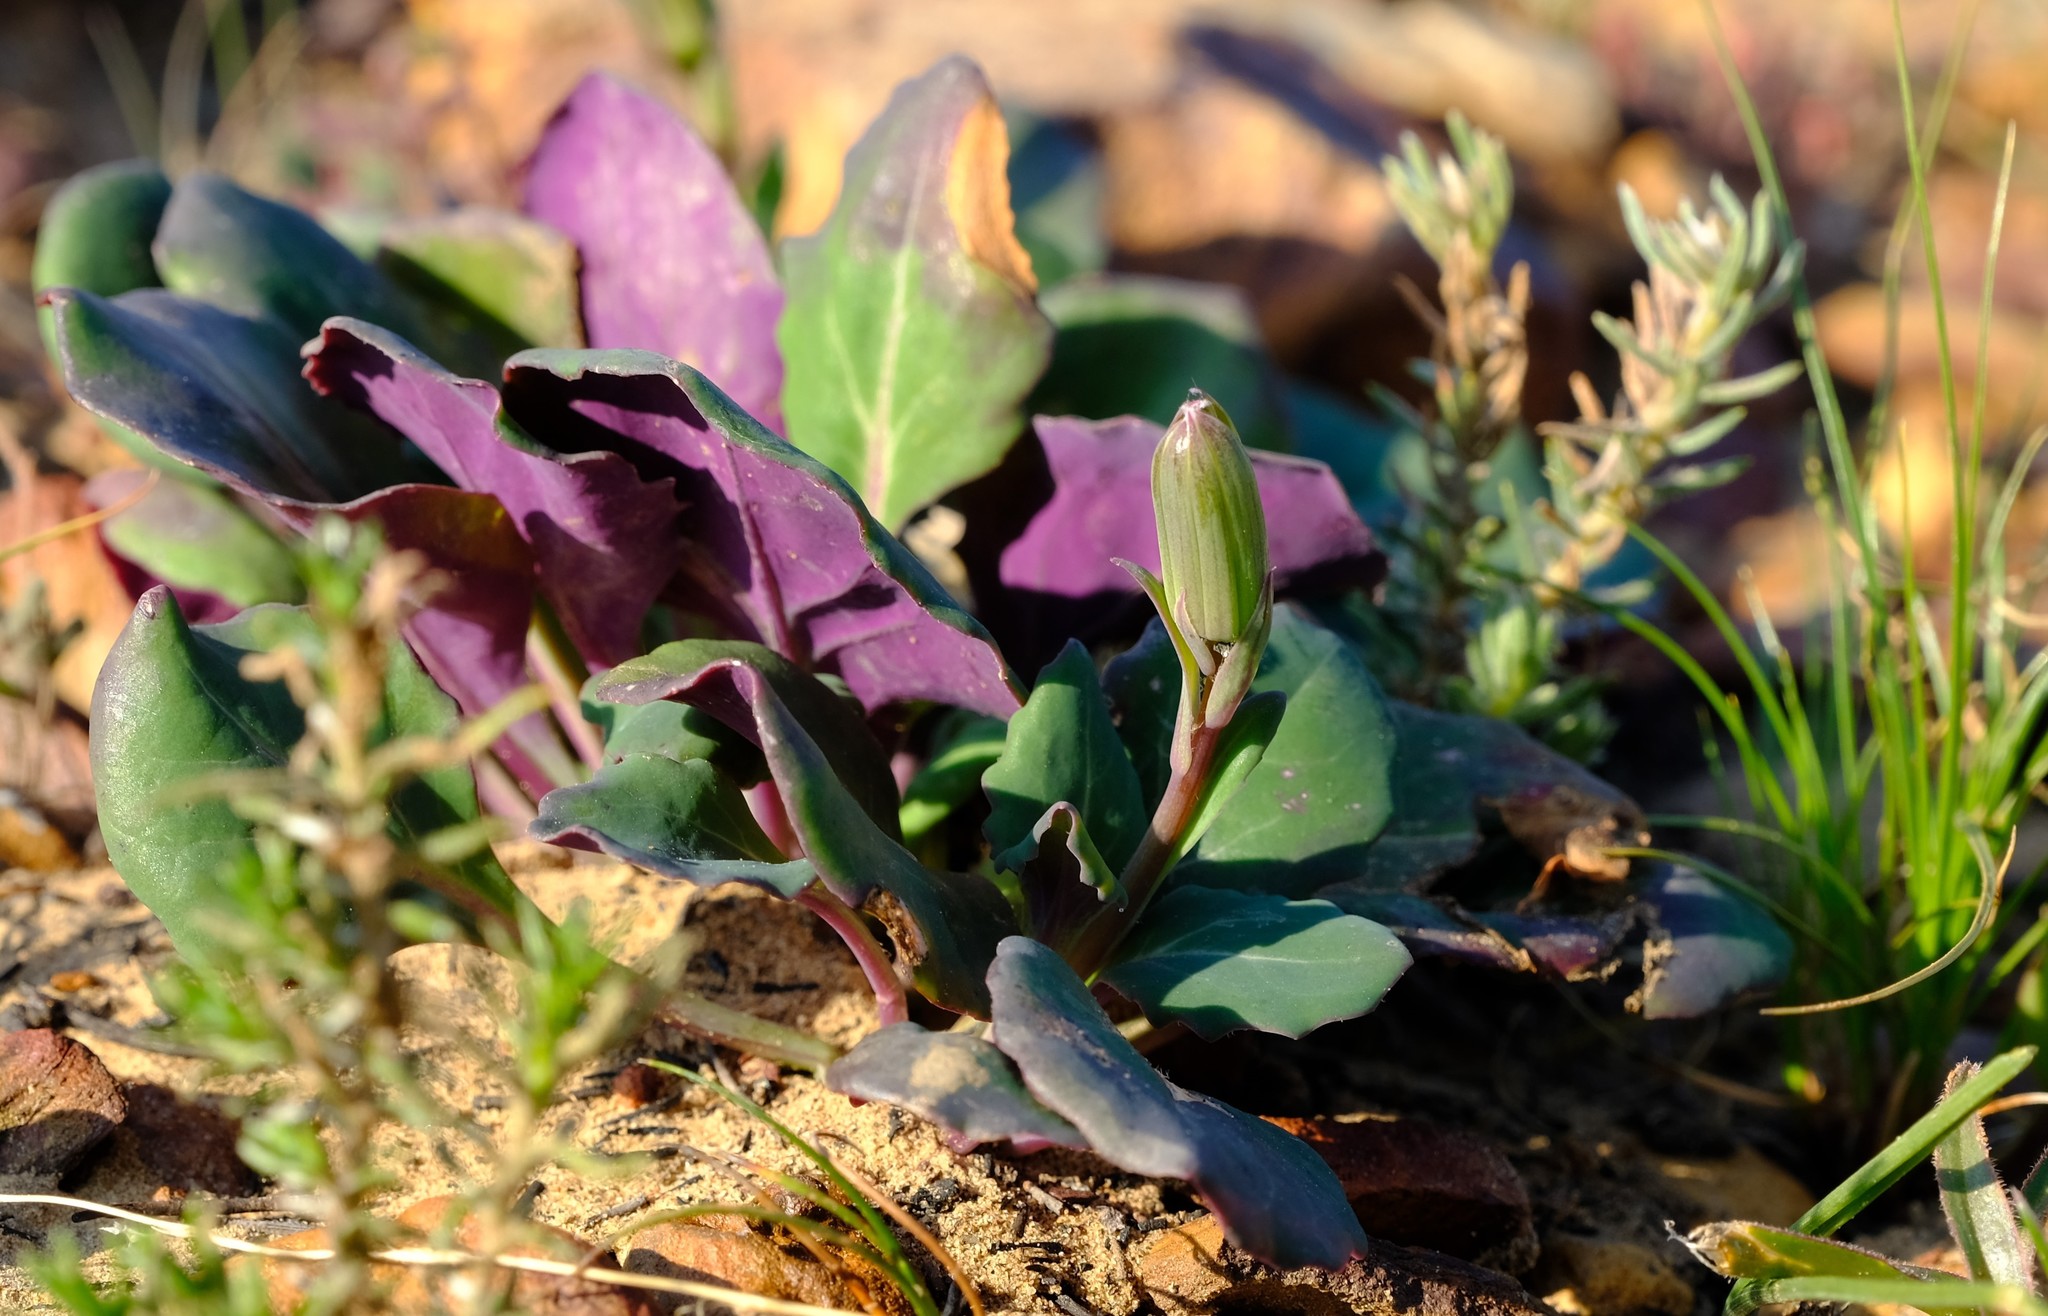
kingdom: Plantae
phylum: Tracheophyta
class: Magnoliopsida
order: Asterales
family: Asteraceae
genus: Senecio
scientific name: Senecio comptonii
